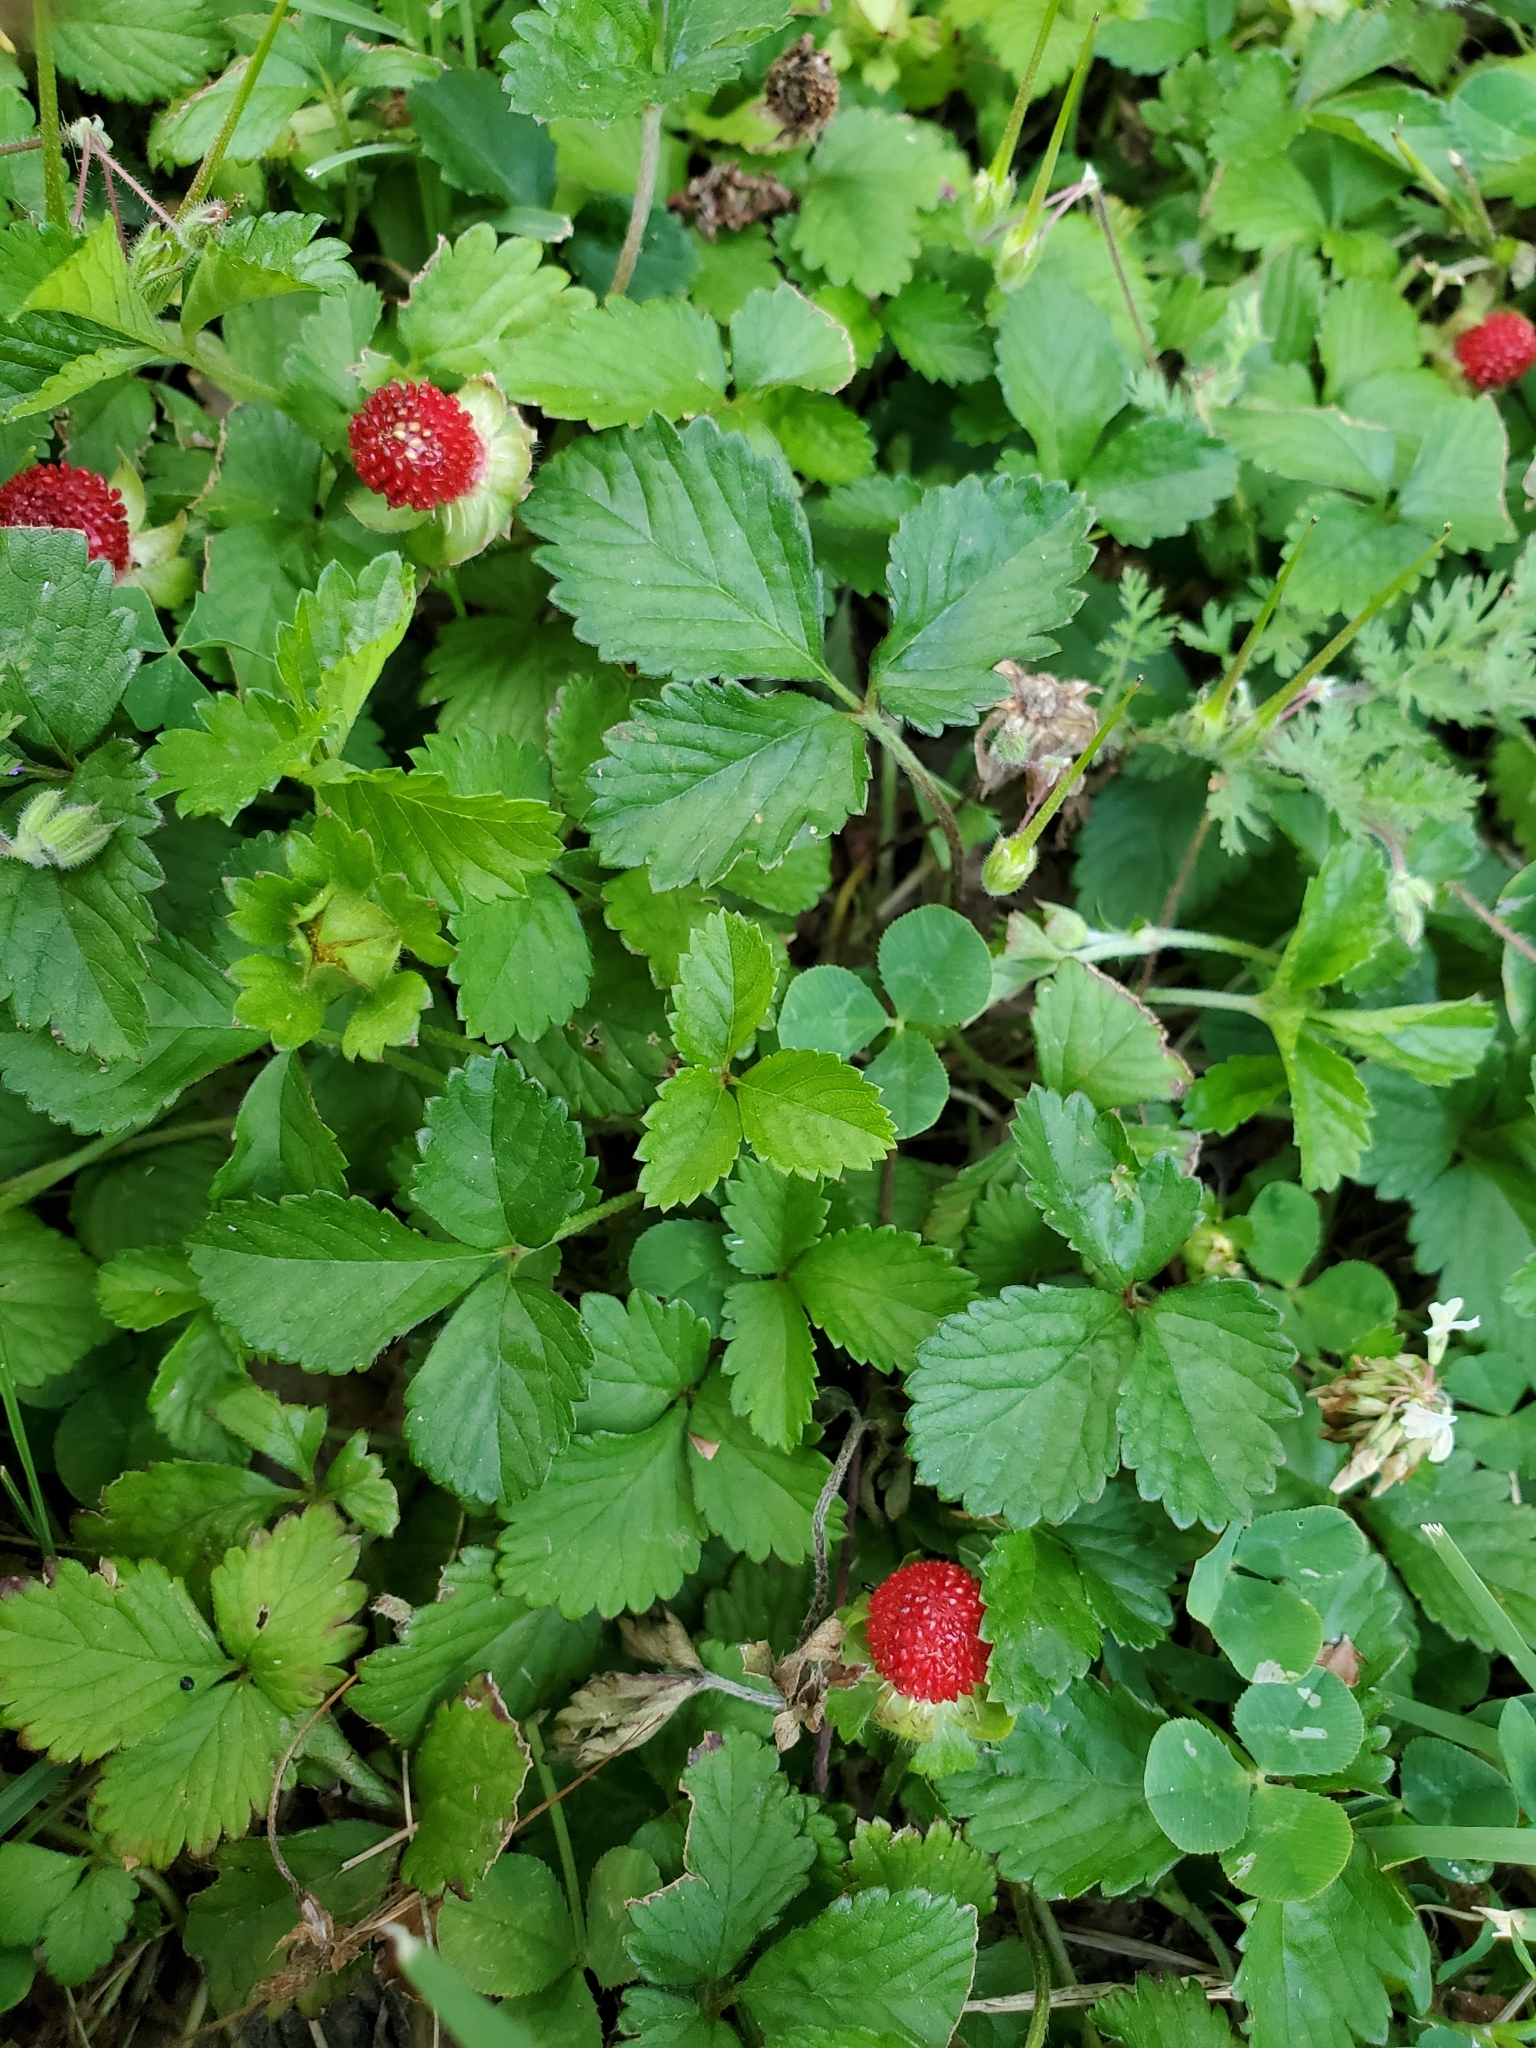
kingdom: Plantae
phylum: Tracheophyta
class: Magnoliopsida
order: Rosales
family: Rosaceae
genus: Potentilla
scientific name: Potentilla indica
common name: Yellow-flowered strawberry
